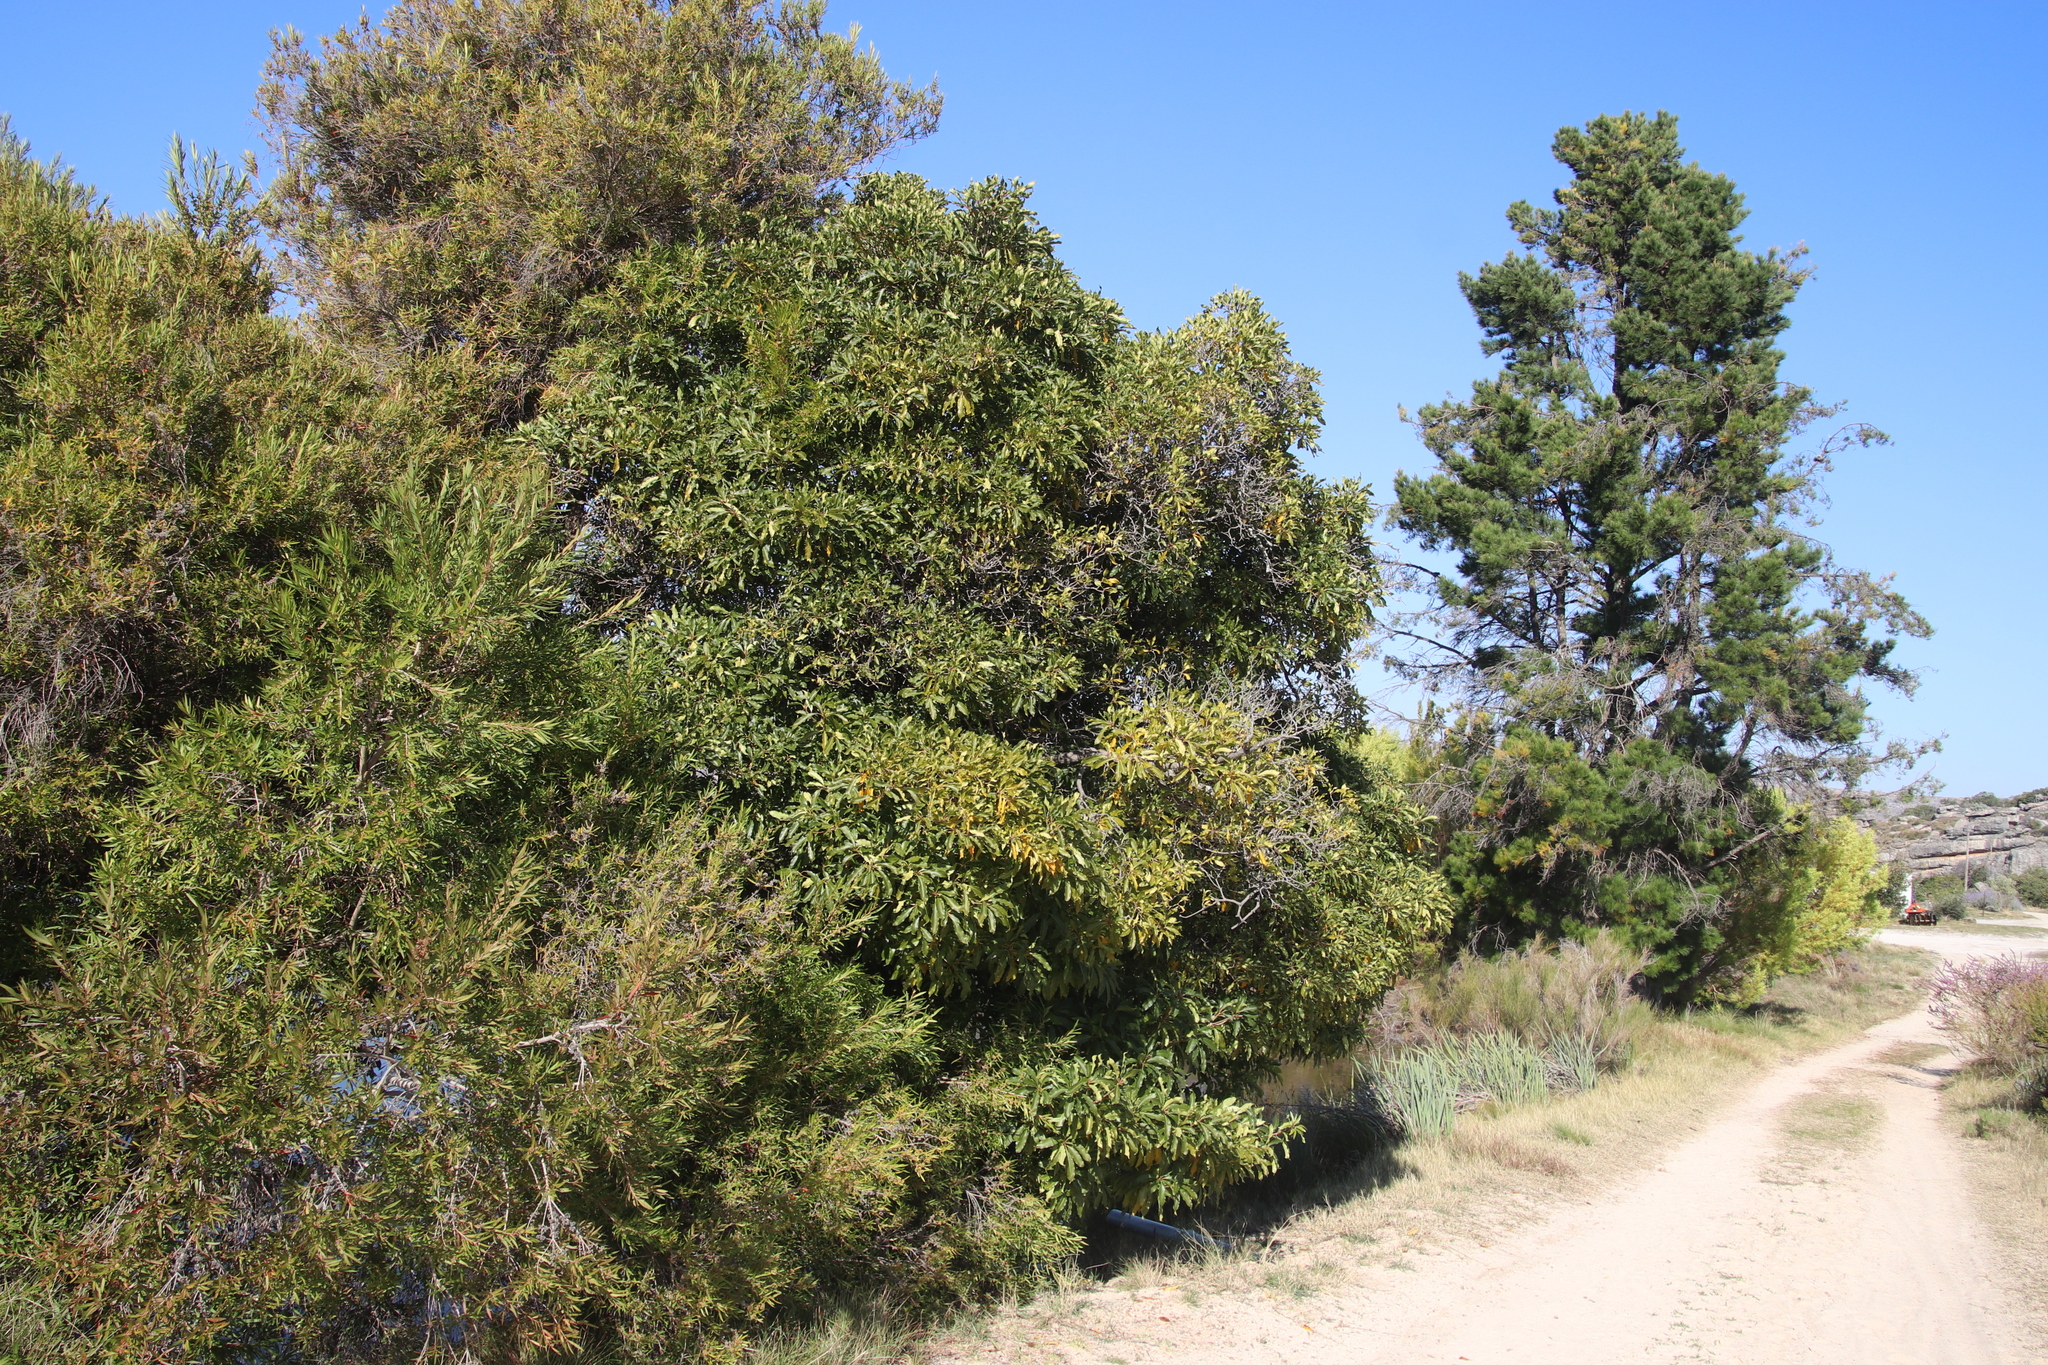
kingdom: Plantae
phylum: Tracheophyta
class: Magnoliopsida
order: Apiales
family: Pittosporaceae
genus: Pittosporum
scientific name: Pittosporum undulatum
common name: Australian cheesewood
